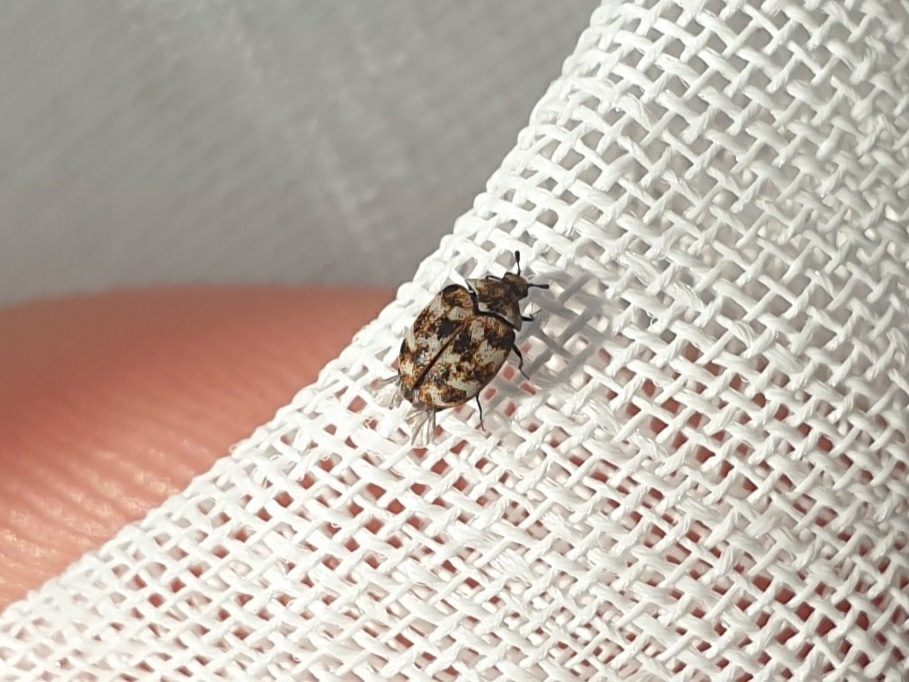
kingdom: Animalia
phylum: Arthropoda
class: Insecta
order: Coleoptera
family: Dermestidae
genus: Anthrenus
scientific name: Anthrenus verbasci
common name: Varied carpet beetle
